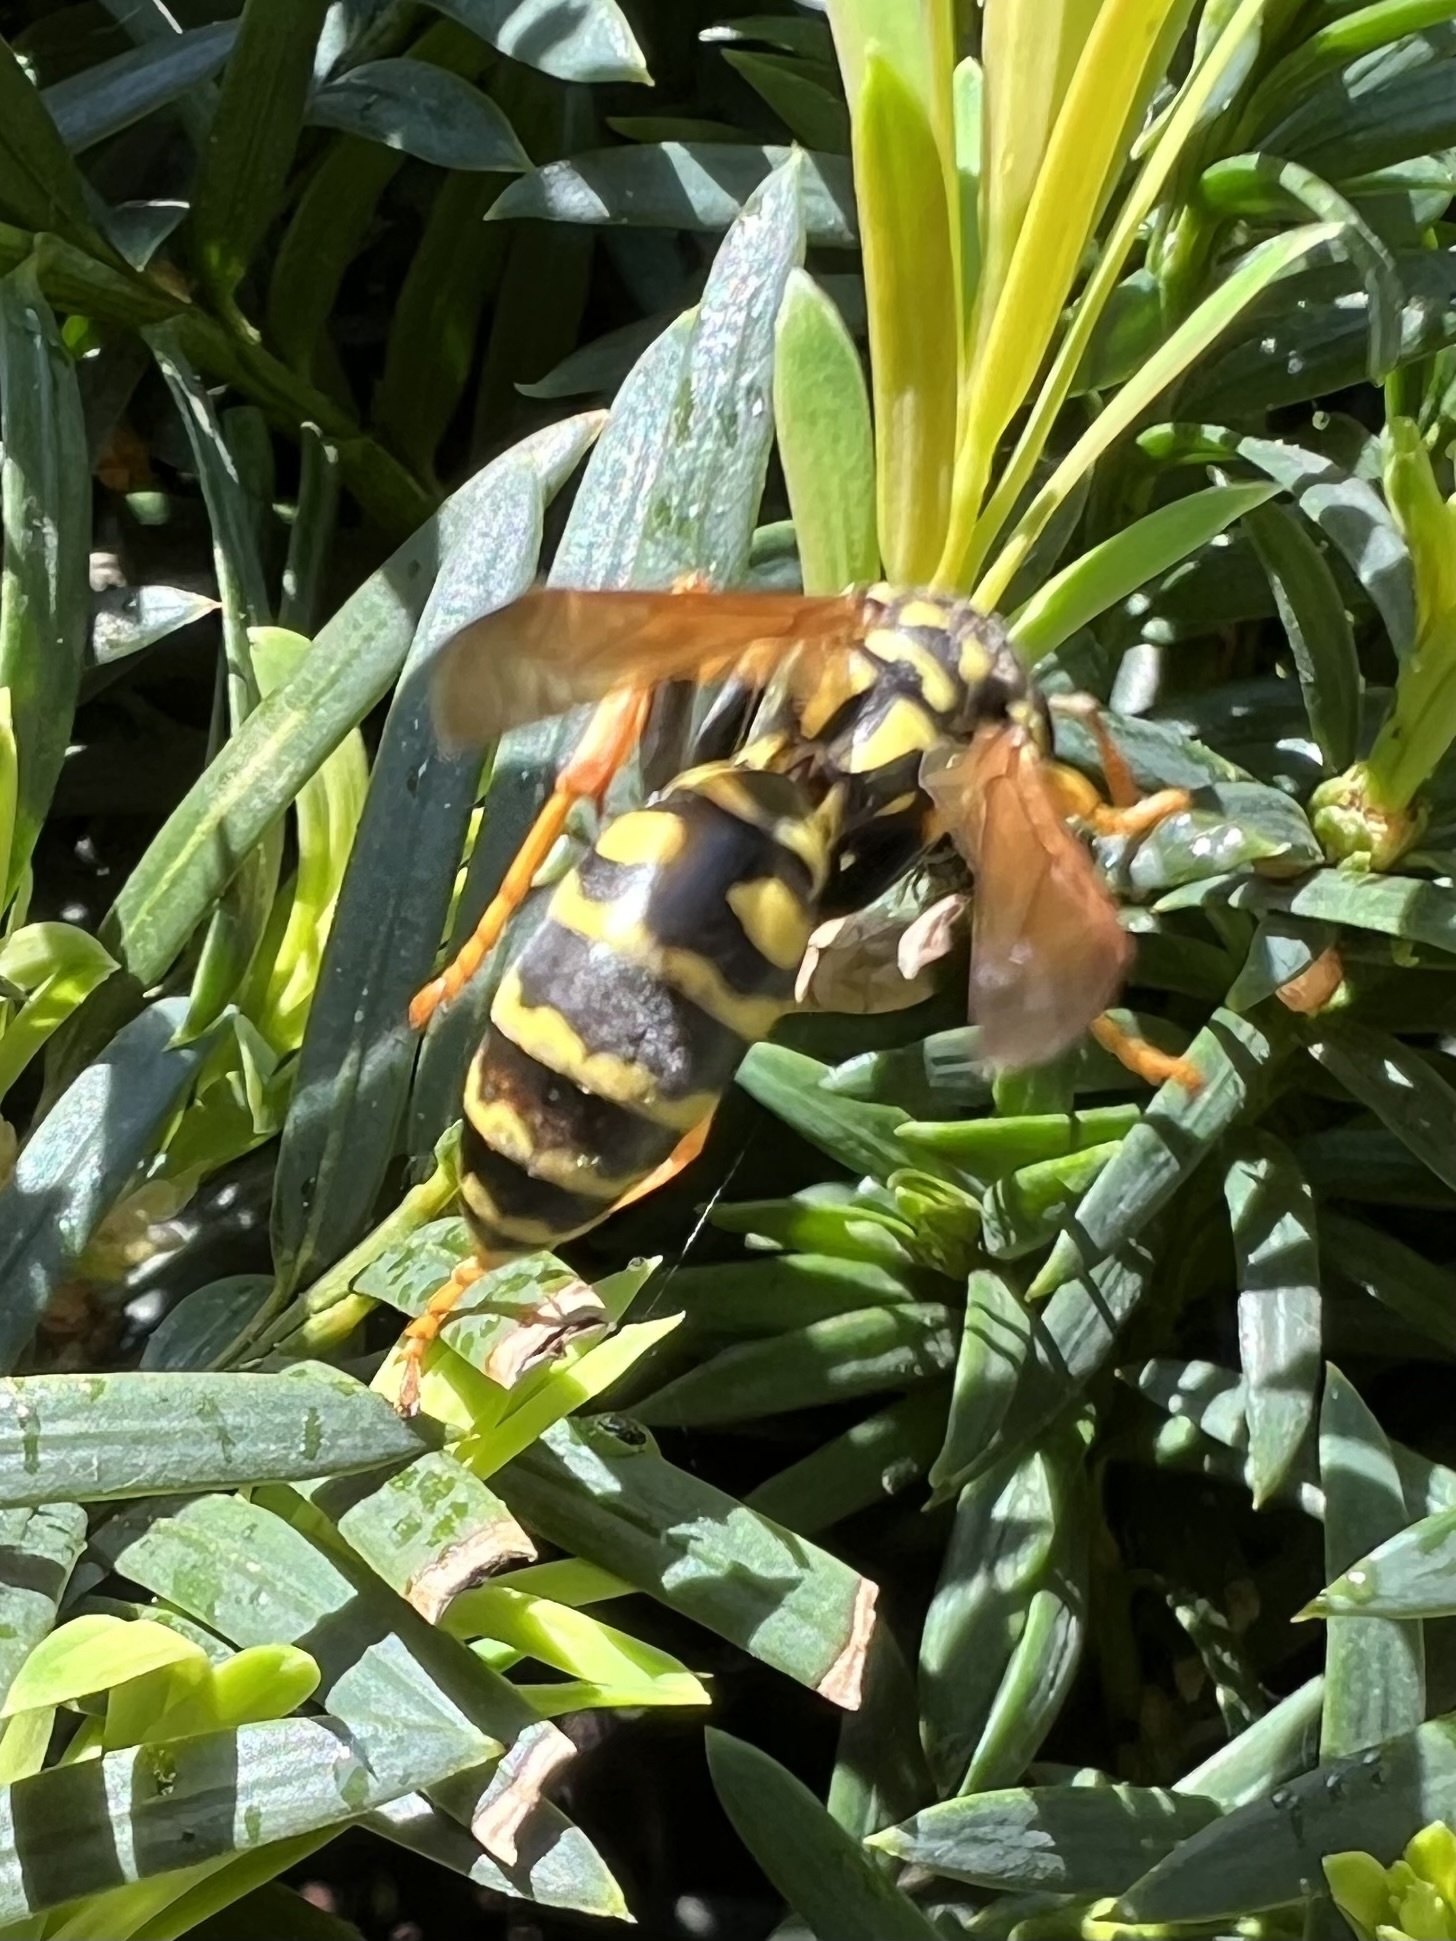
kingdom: Animalia
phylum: Arthropoda
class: Insecta
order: Hymenoptera
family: Eumenidae
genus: Polistes
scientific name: Polistes dominula
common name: Paper wasp
